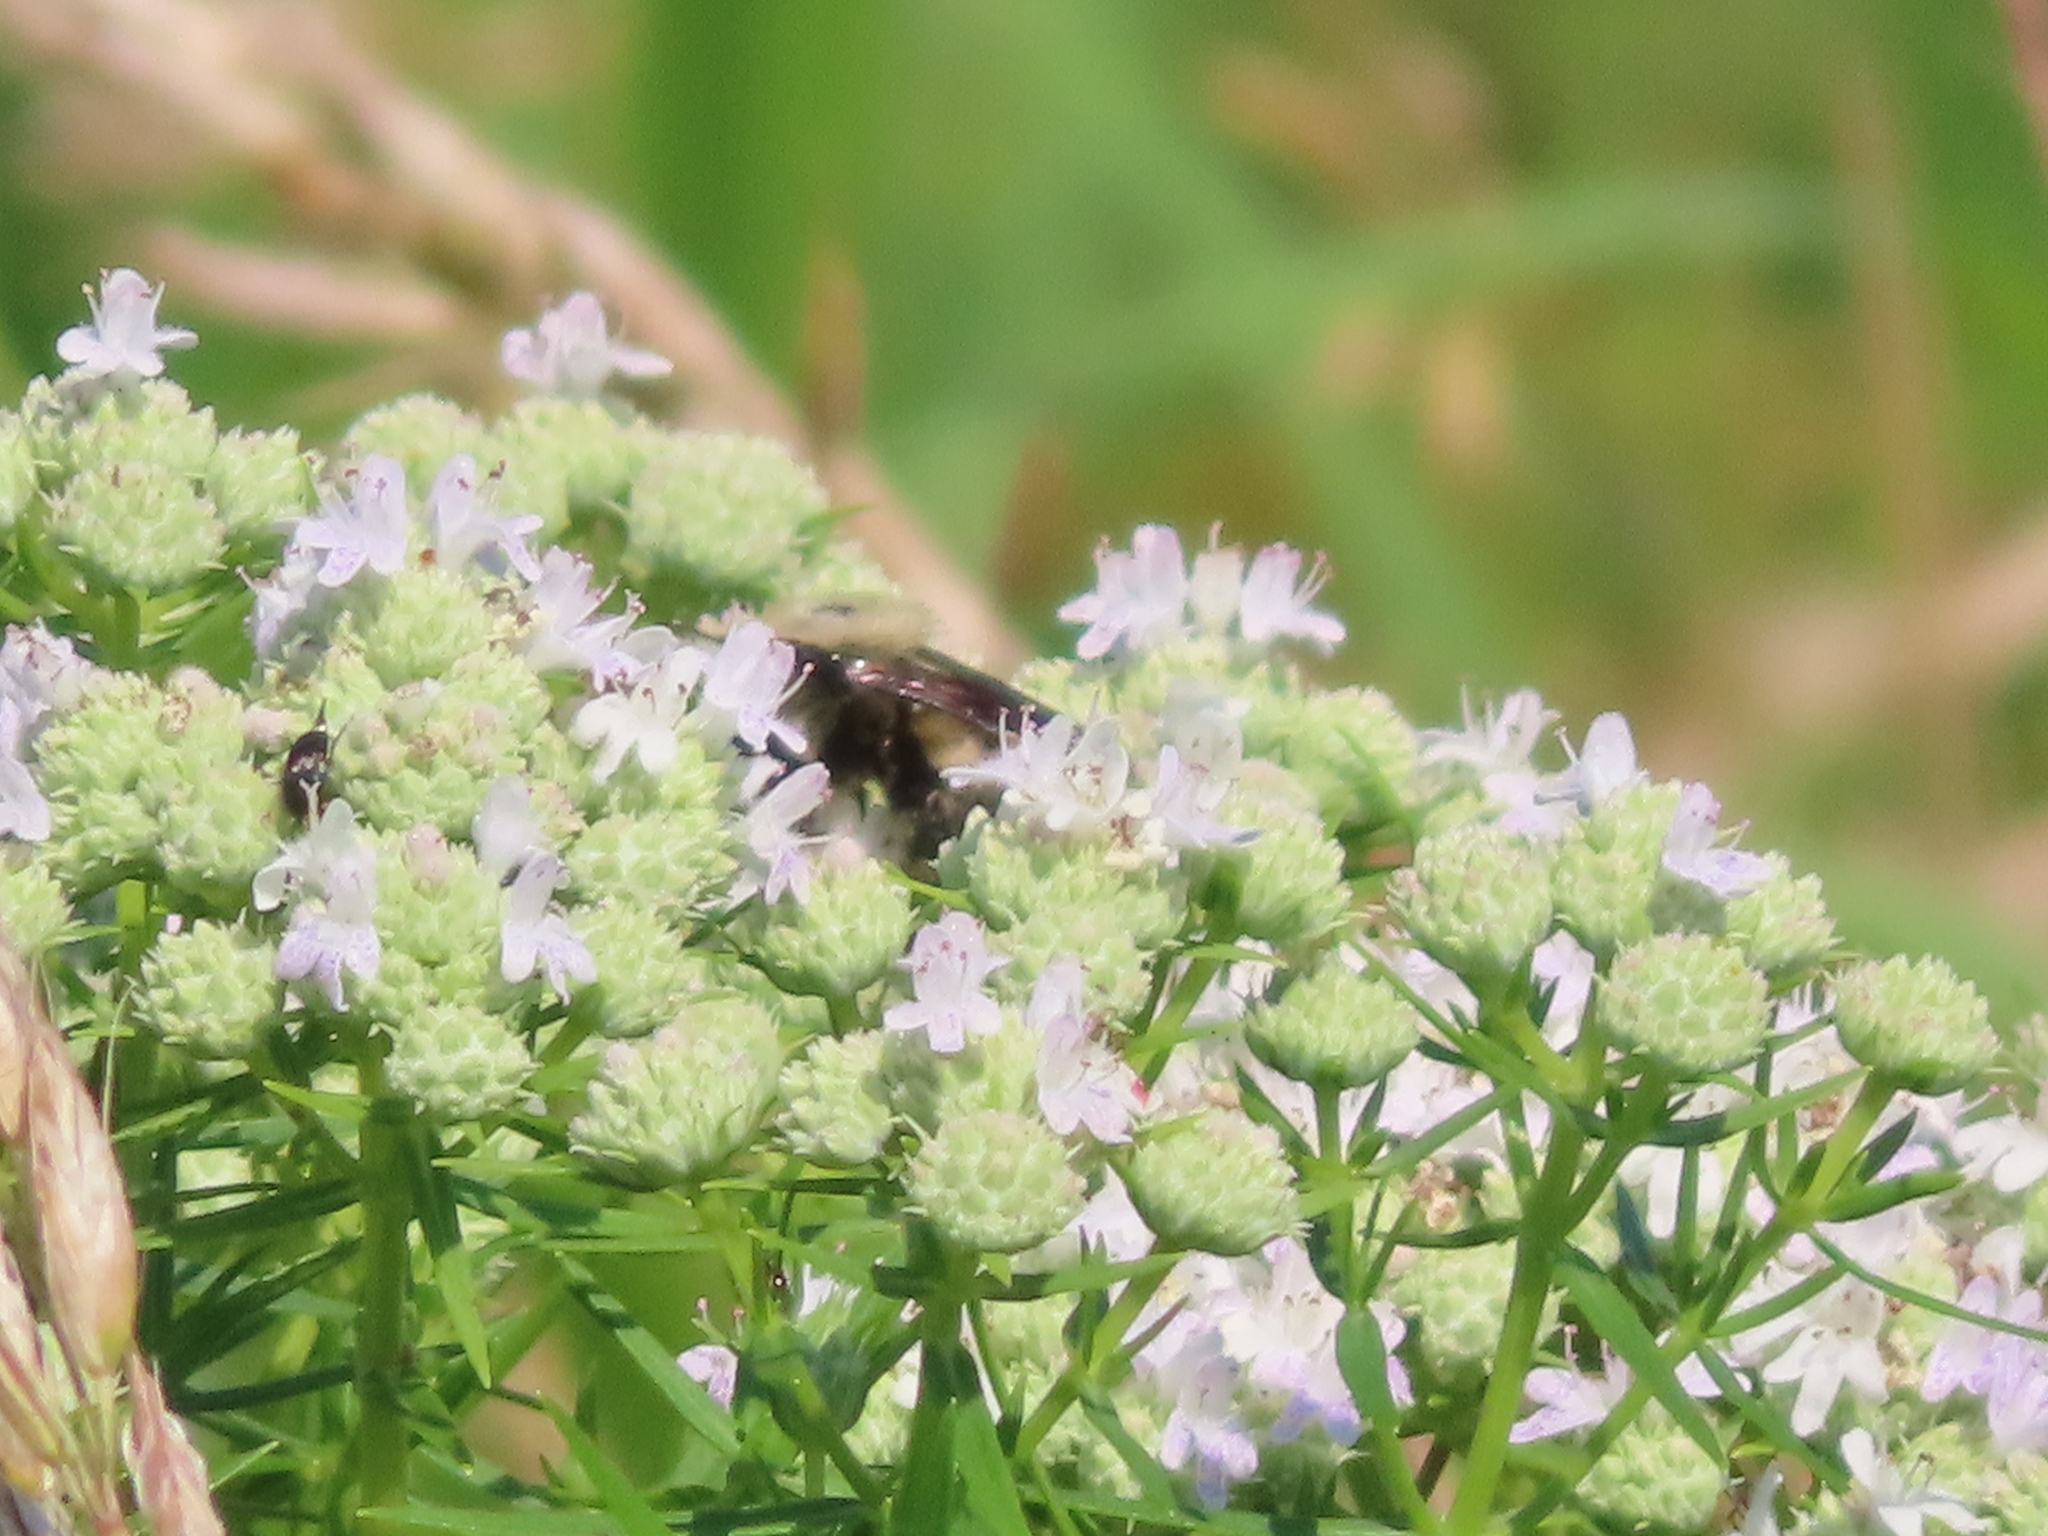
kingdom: Animalia
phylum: Arthropoda
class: Insecta
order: Hymenoptera
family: Apidae
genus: Bombus
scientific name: Bombus
